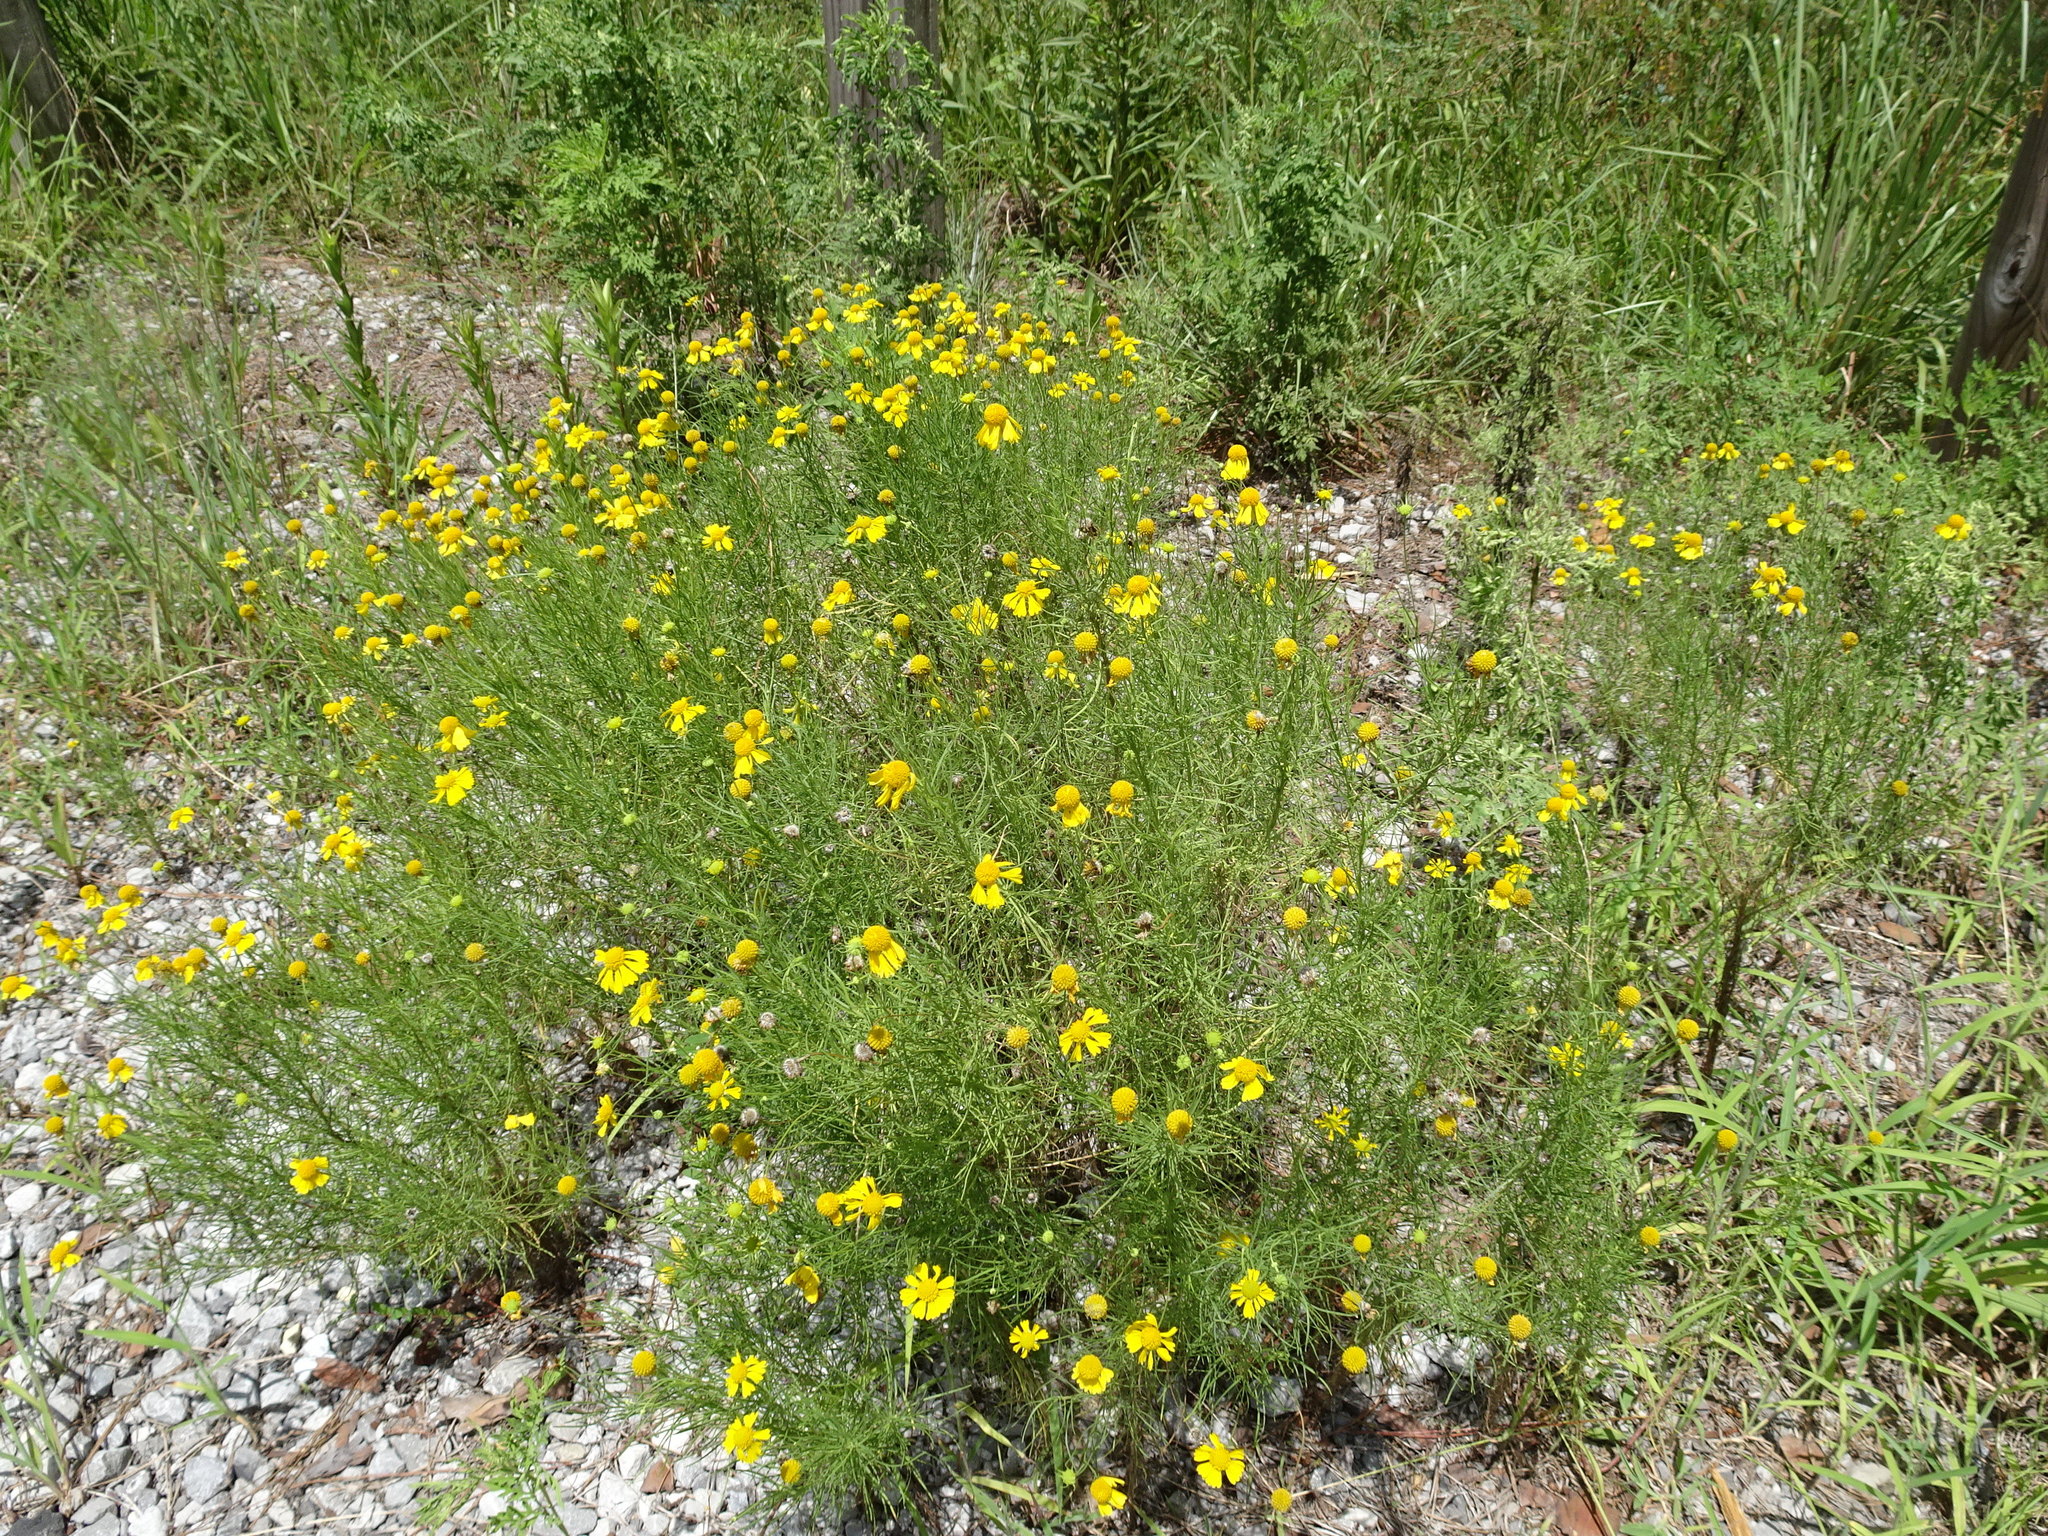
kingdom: Plantae
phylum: Tracheophyta
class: Magnoliopsida
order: Asterales
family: Asteraceae
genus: Helenium
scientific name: Helenium amarum
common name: Bitter sneezeweed
